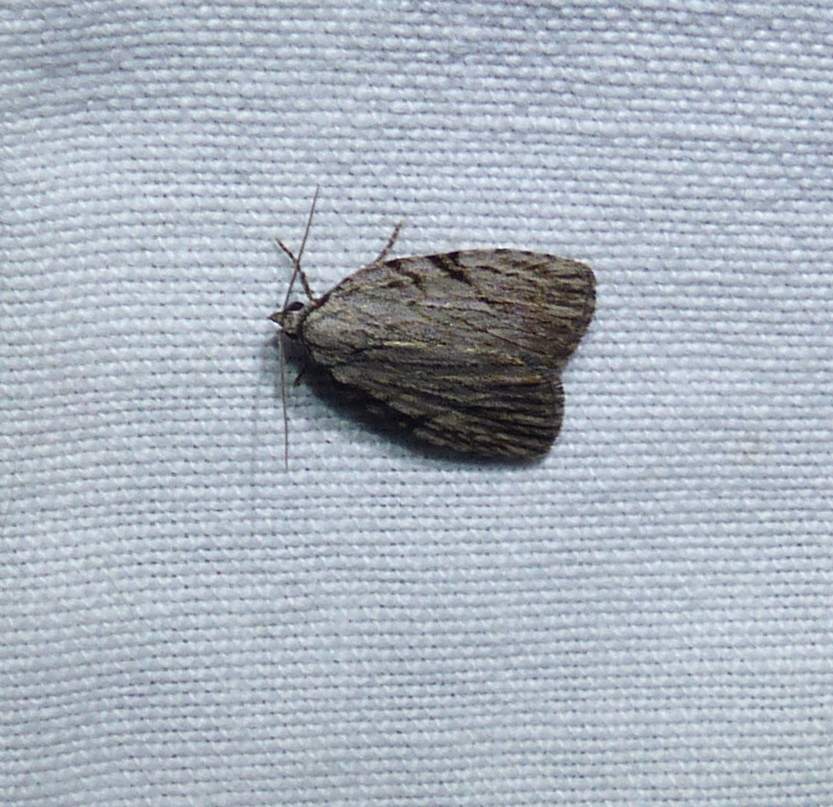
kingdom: Animalia
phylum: Arthropoda
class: Insecta
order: Lepidoptera
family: Noctuidae
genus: Balsa
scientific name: Balsa tristrigella
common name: Three-lined balsa moth
